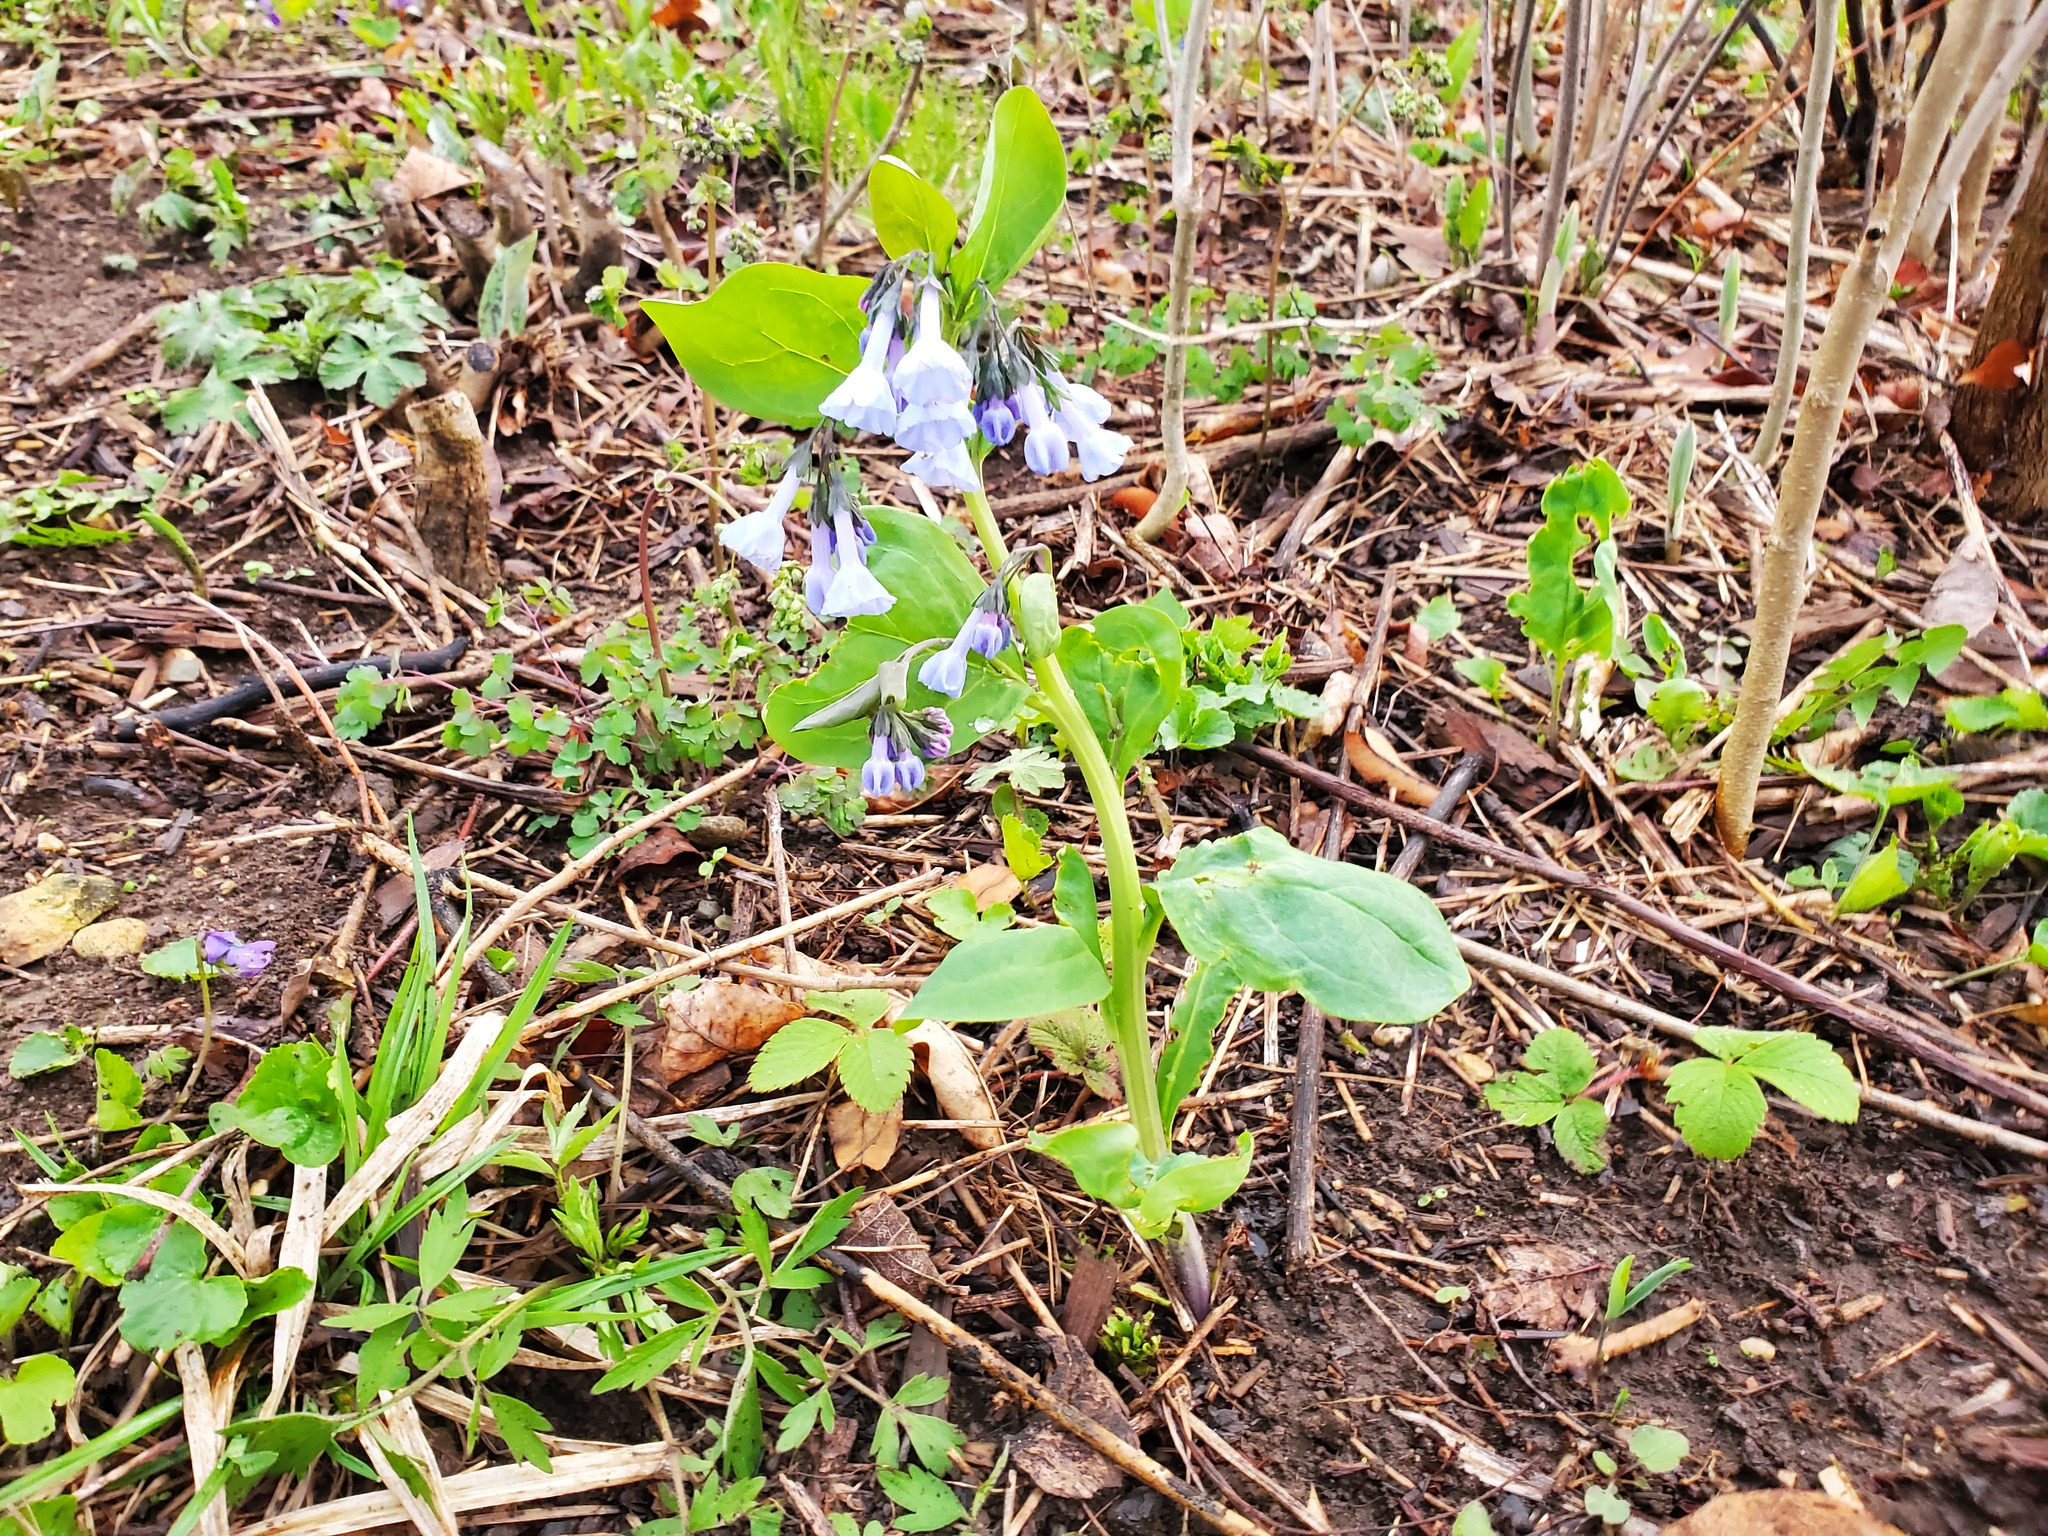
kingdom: Plantae
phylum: Tracheophyta
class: Magnoliopsida
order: Boraginales
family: Boraginaceae
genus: Mertensia
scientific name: Mertensia virginica
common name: Virginia bluebells
